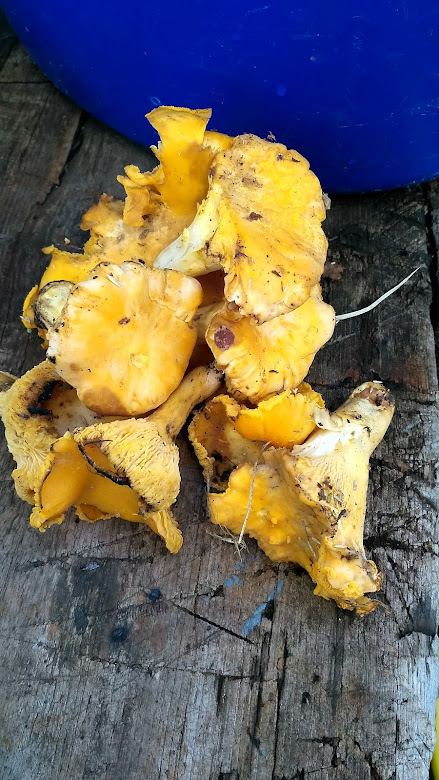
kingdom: Fungi
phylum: Basidiomycota
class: Agaricomycetes
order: Cantharellales
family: Hydnaceae
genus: Cantharellus
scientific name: Cantharellus cibarius
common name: Chanterelle
